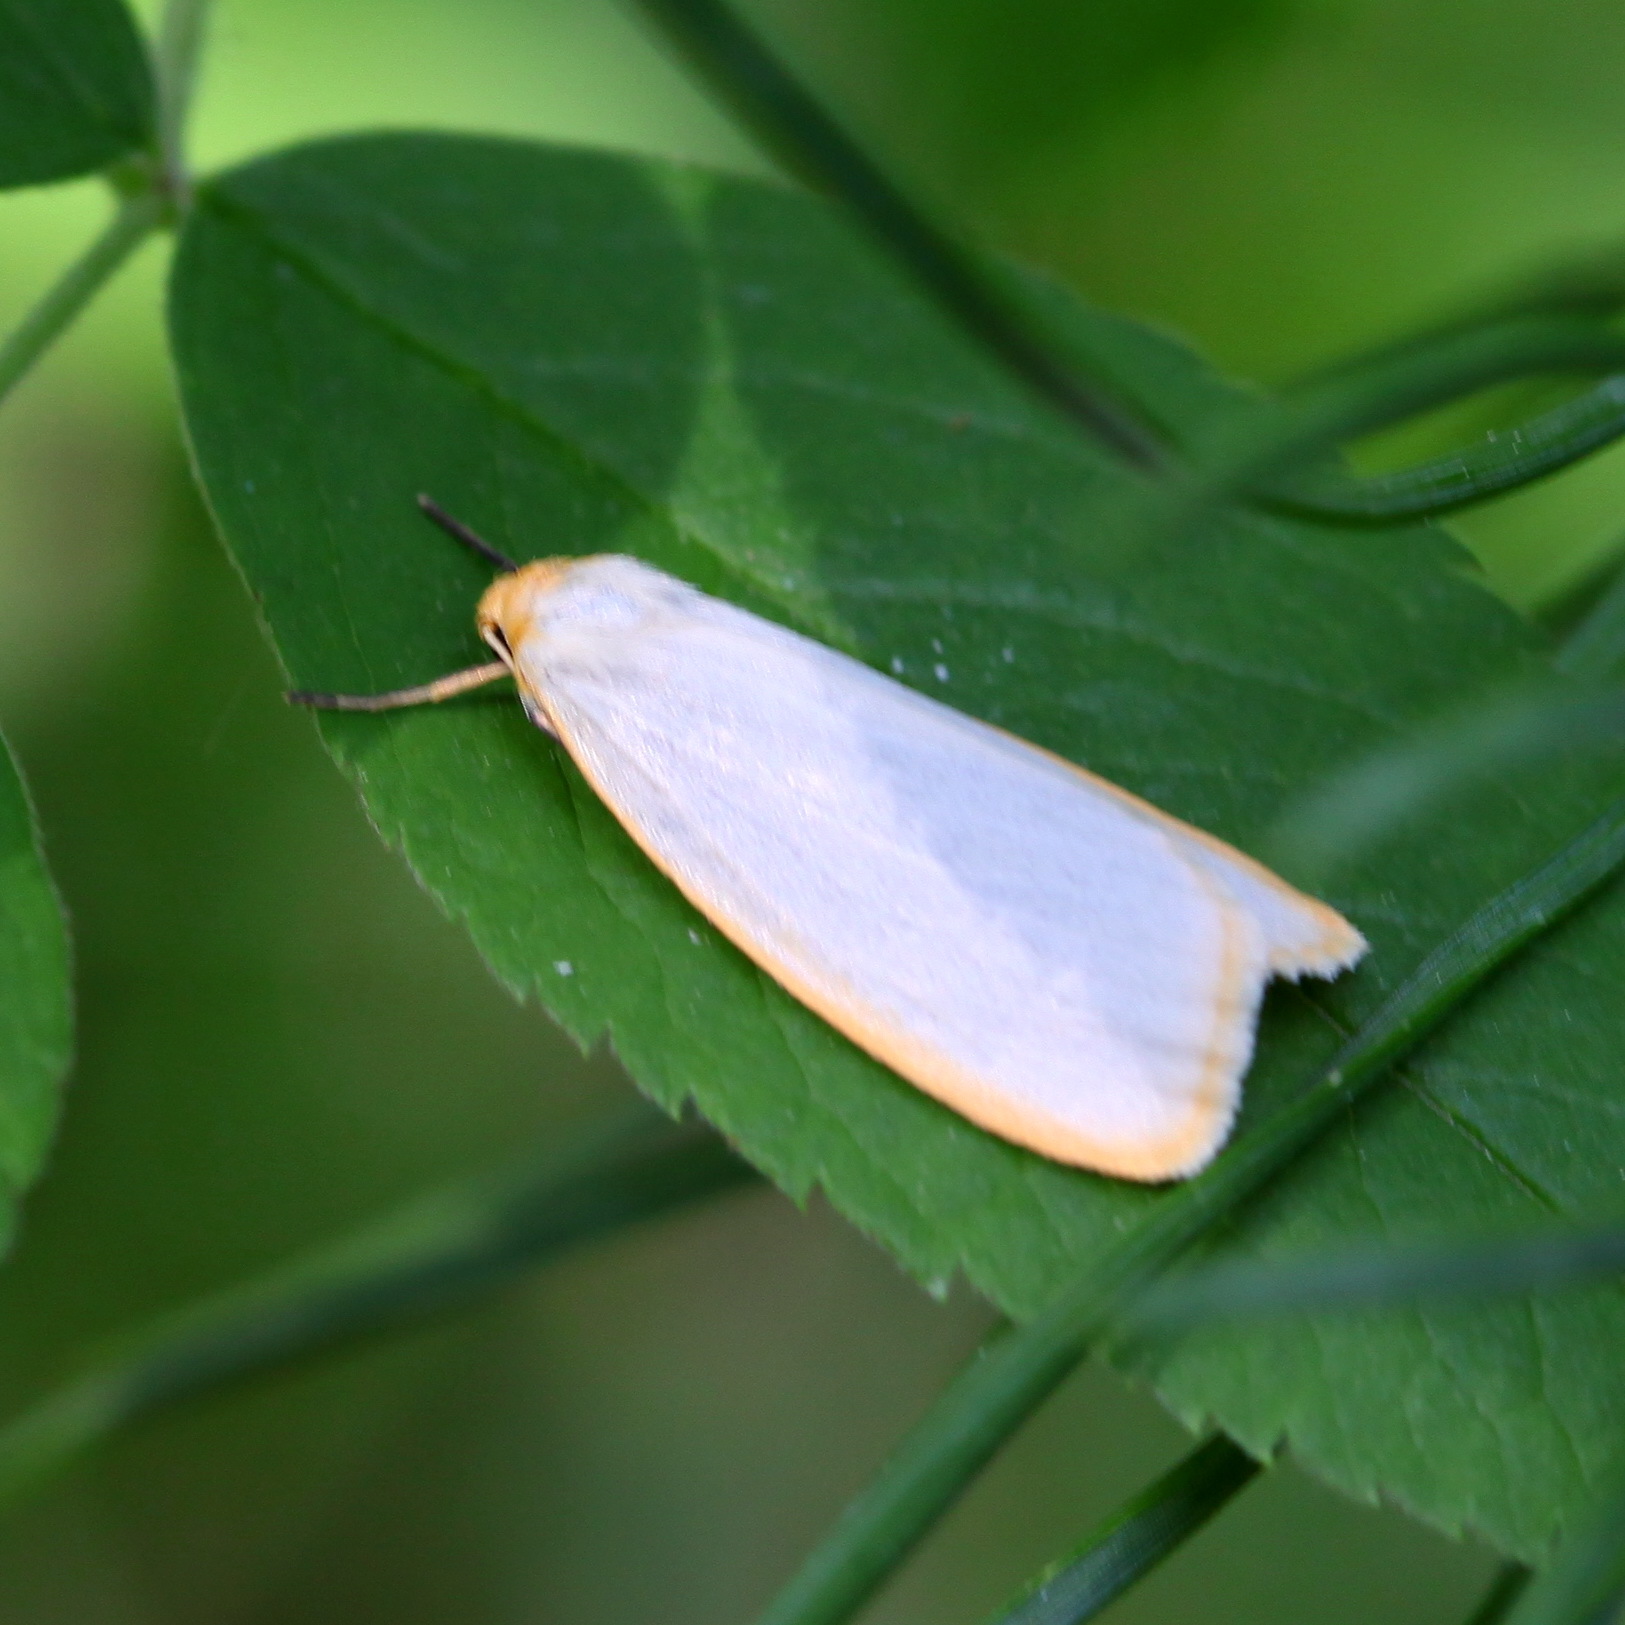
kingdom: Animalia
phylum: Arthropoda
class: Insecta
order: Lepidoptera
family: Erebidae
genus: Cybosia
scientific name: Cybosia mesomella
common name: Four-dotted footman
